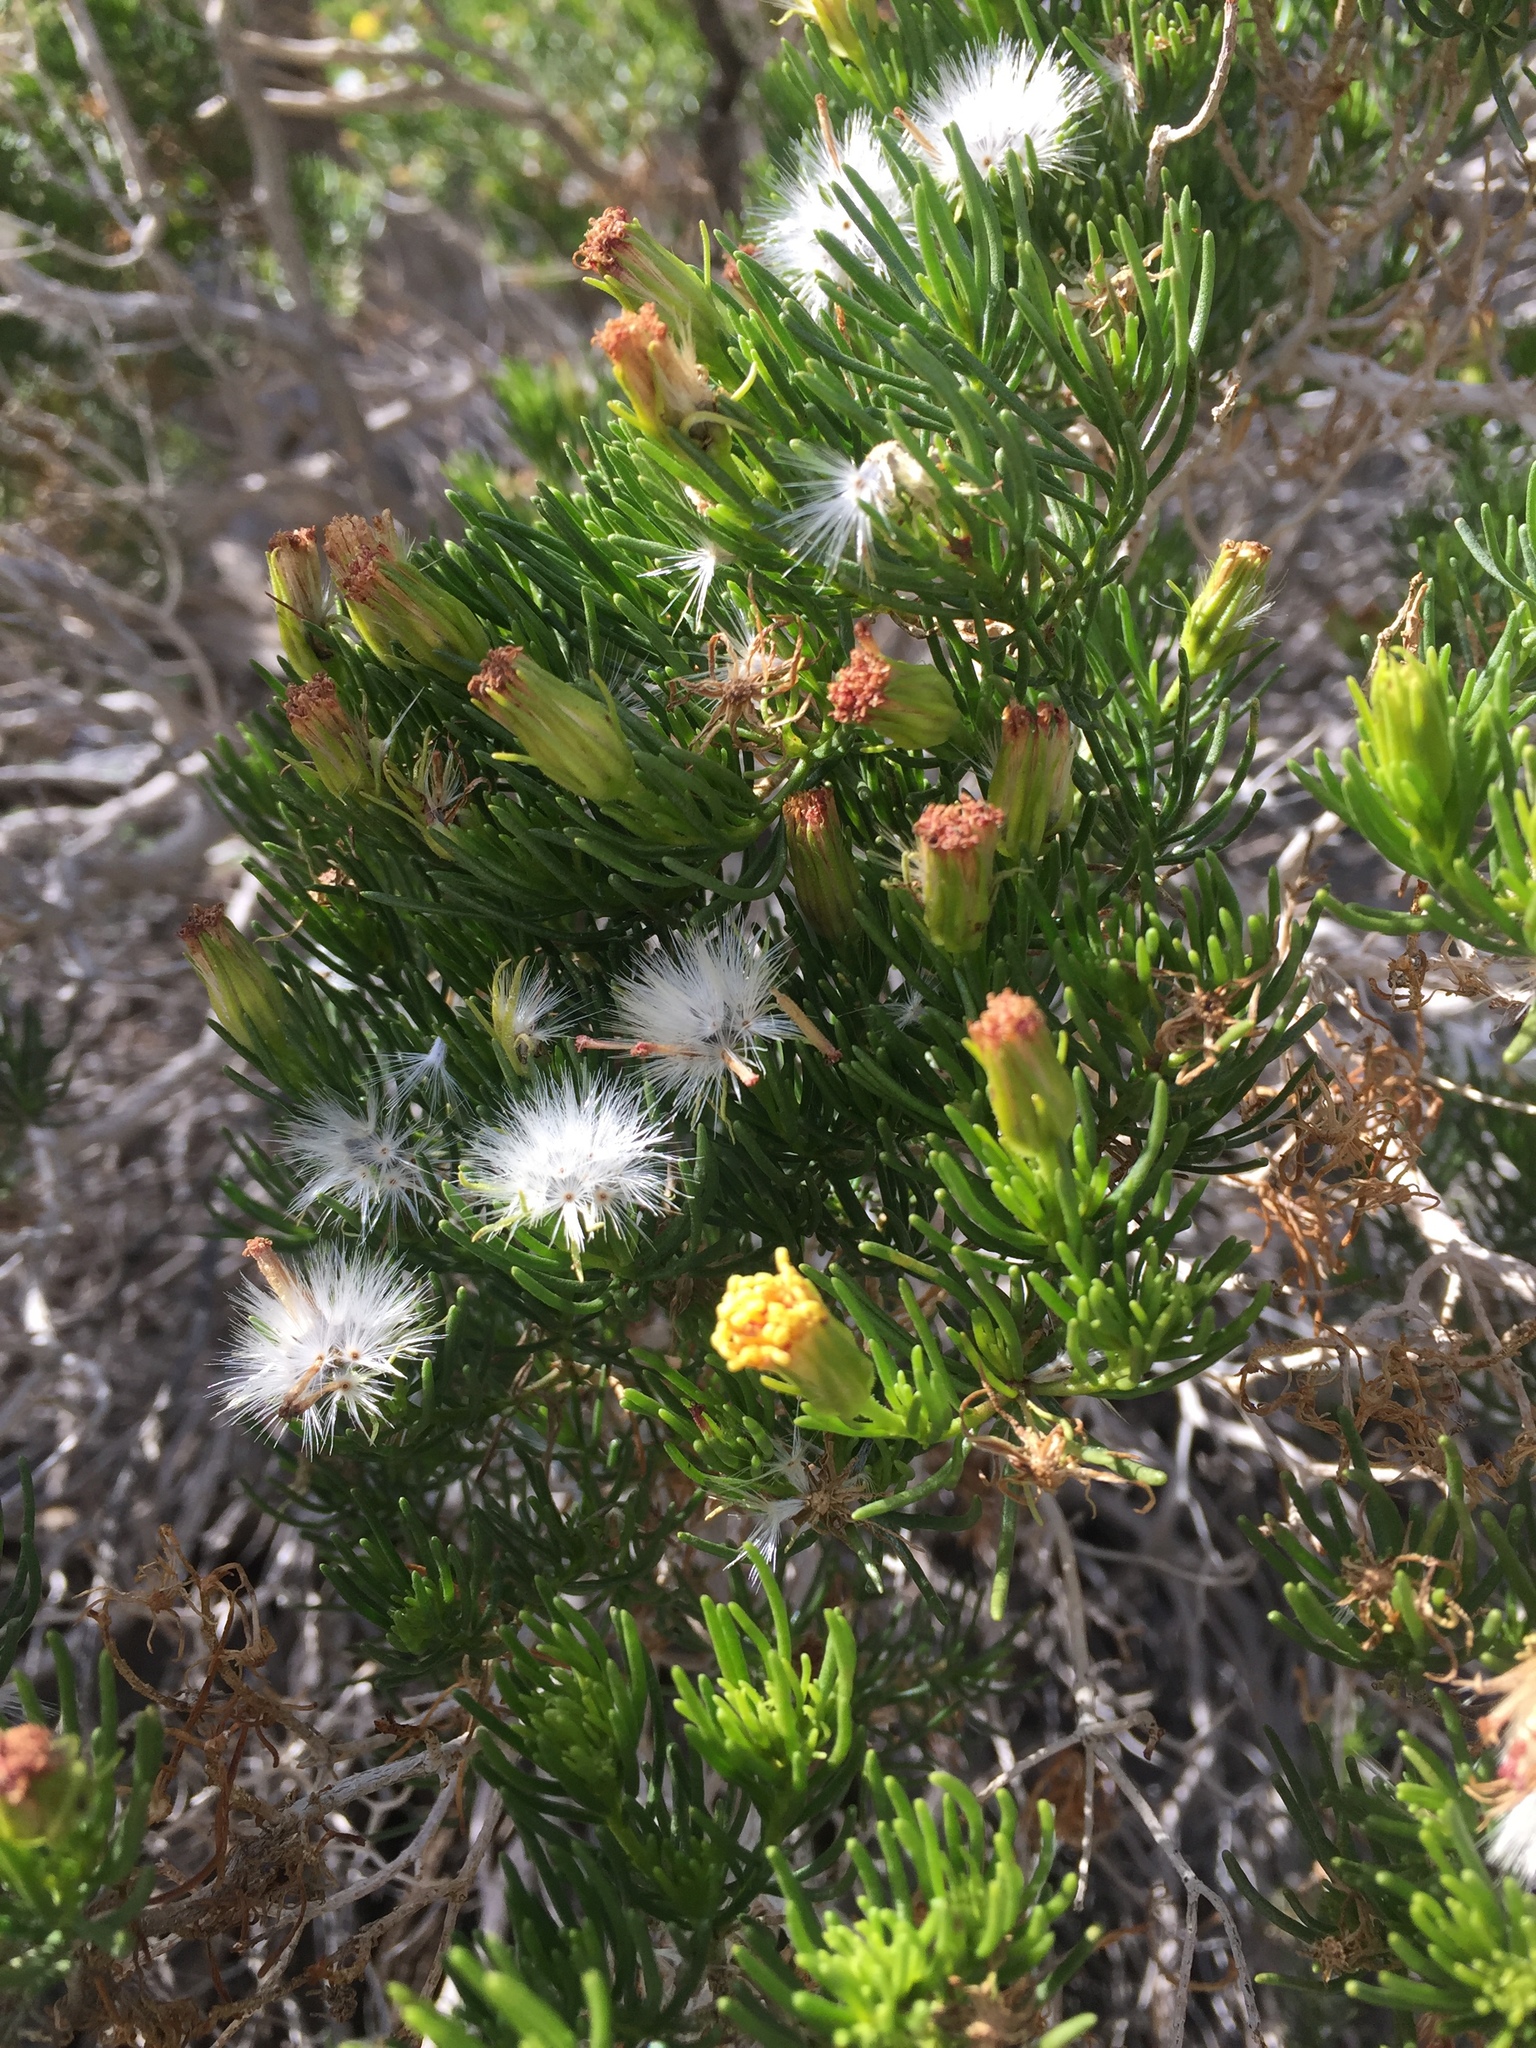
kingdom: Plantae
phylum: Tracheophyta
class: Magnoliopsida
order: Asterales
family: Asteraceae
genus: Peucephyllum
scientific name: Peucephyllum schottii
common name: Pygmy-cedar
